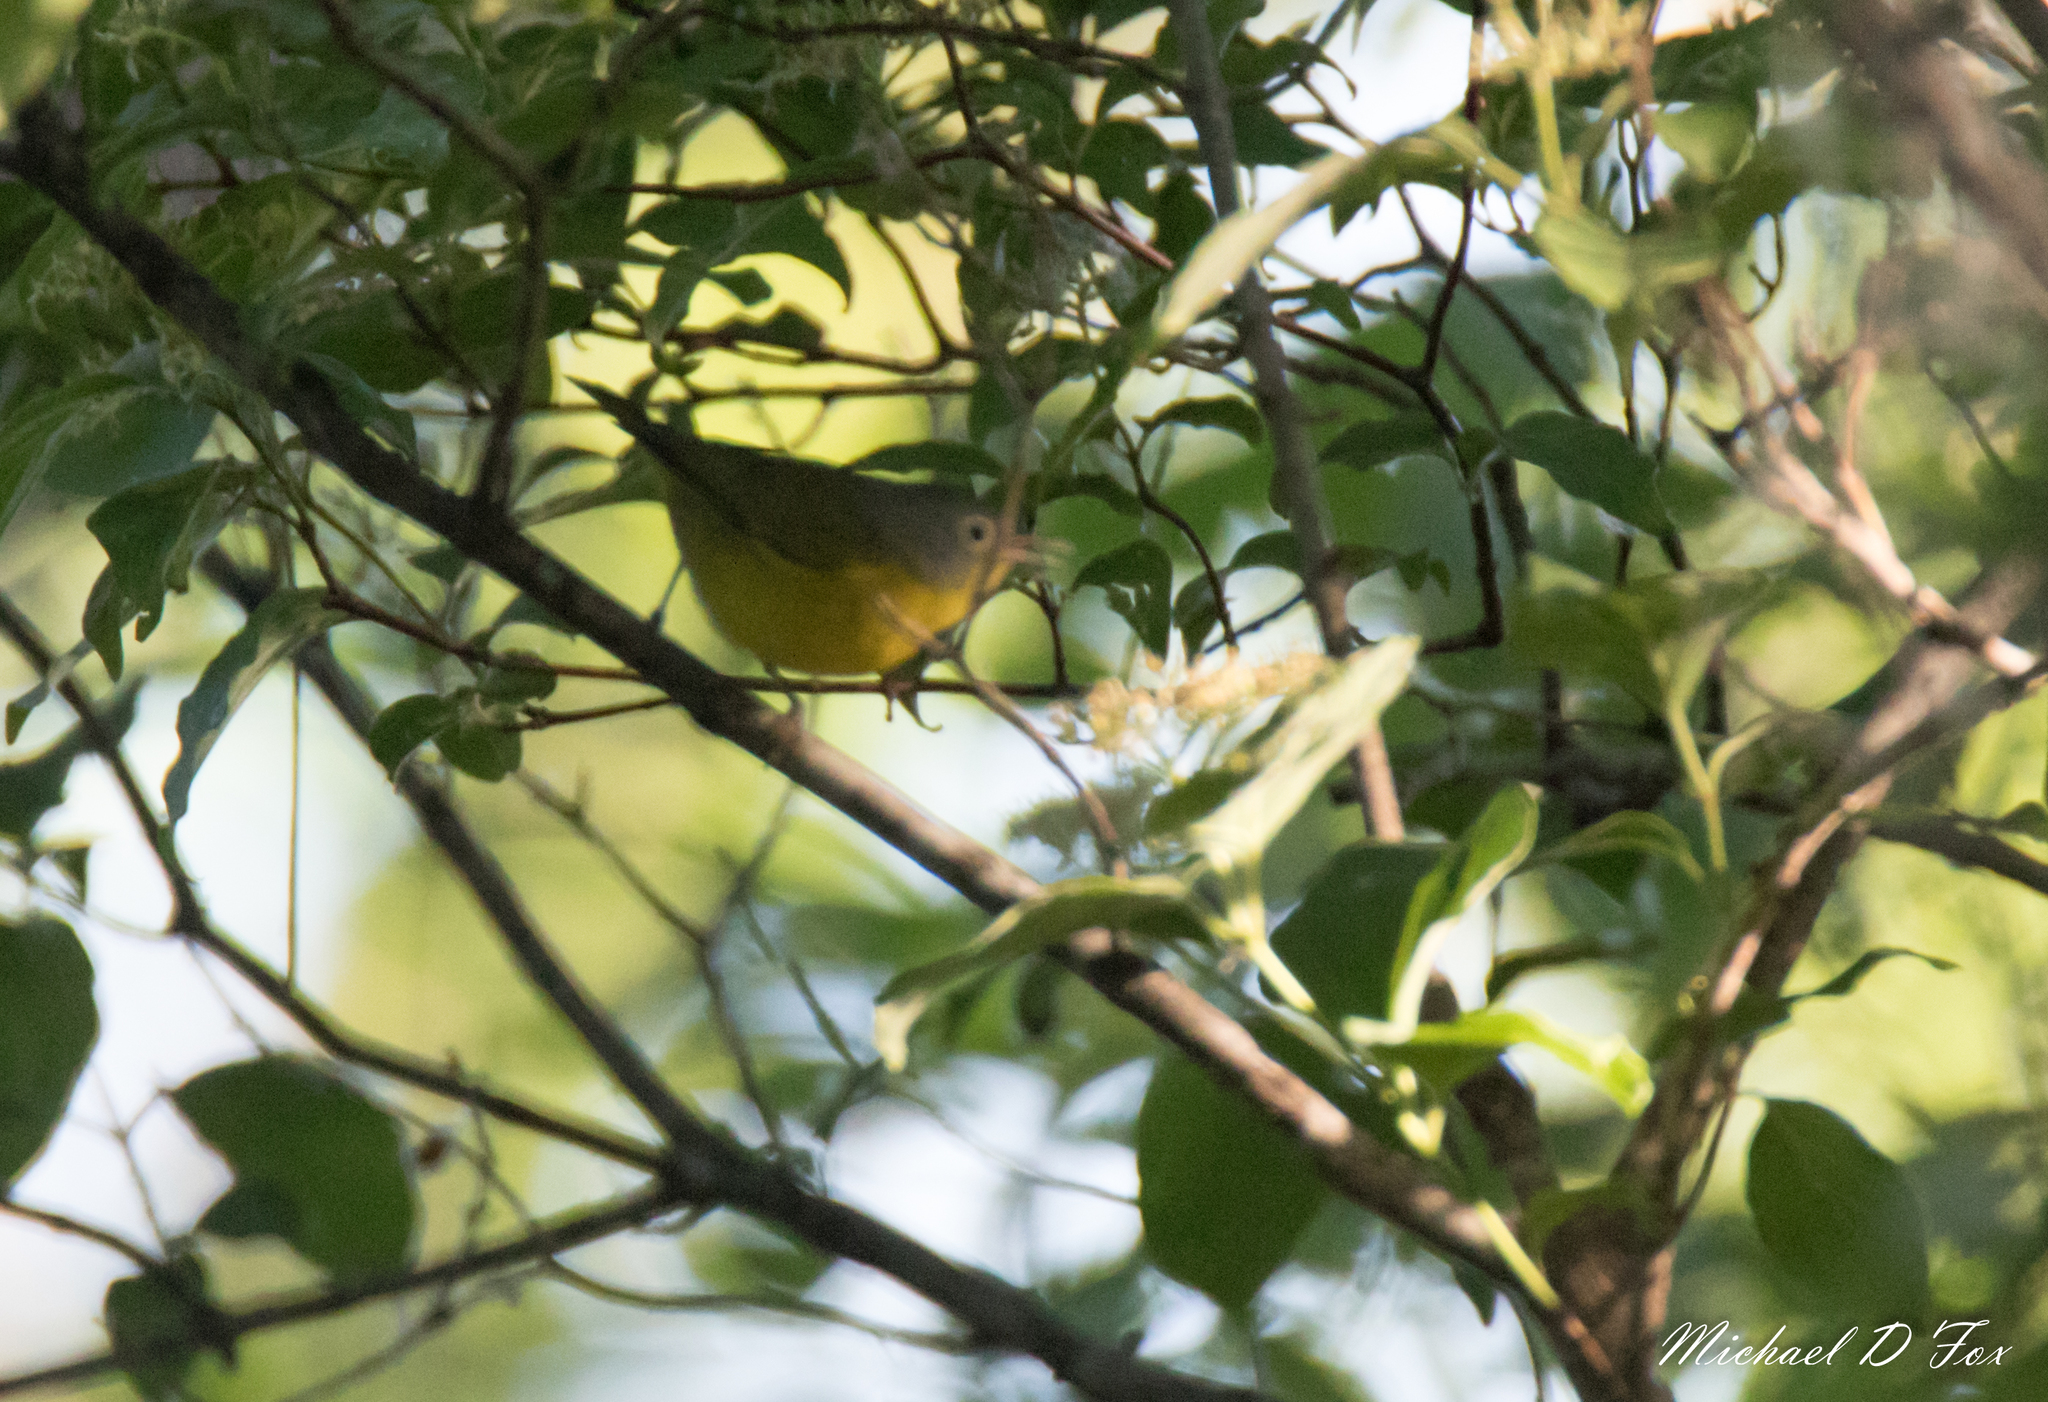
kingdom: Animalia
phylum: Chordata
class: Aves
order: Passeriformes
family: Parulidae
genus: Leiothlypis
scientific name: Leiothlypis ruficapilla
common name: Nashville warbler
